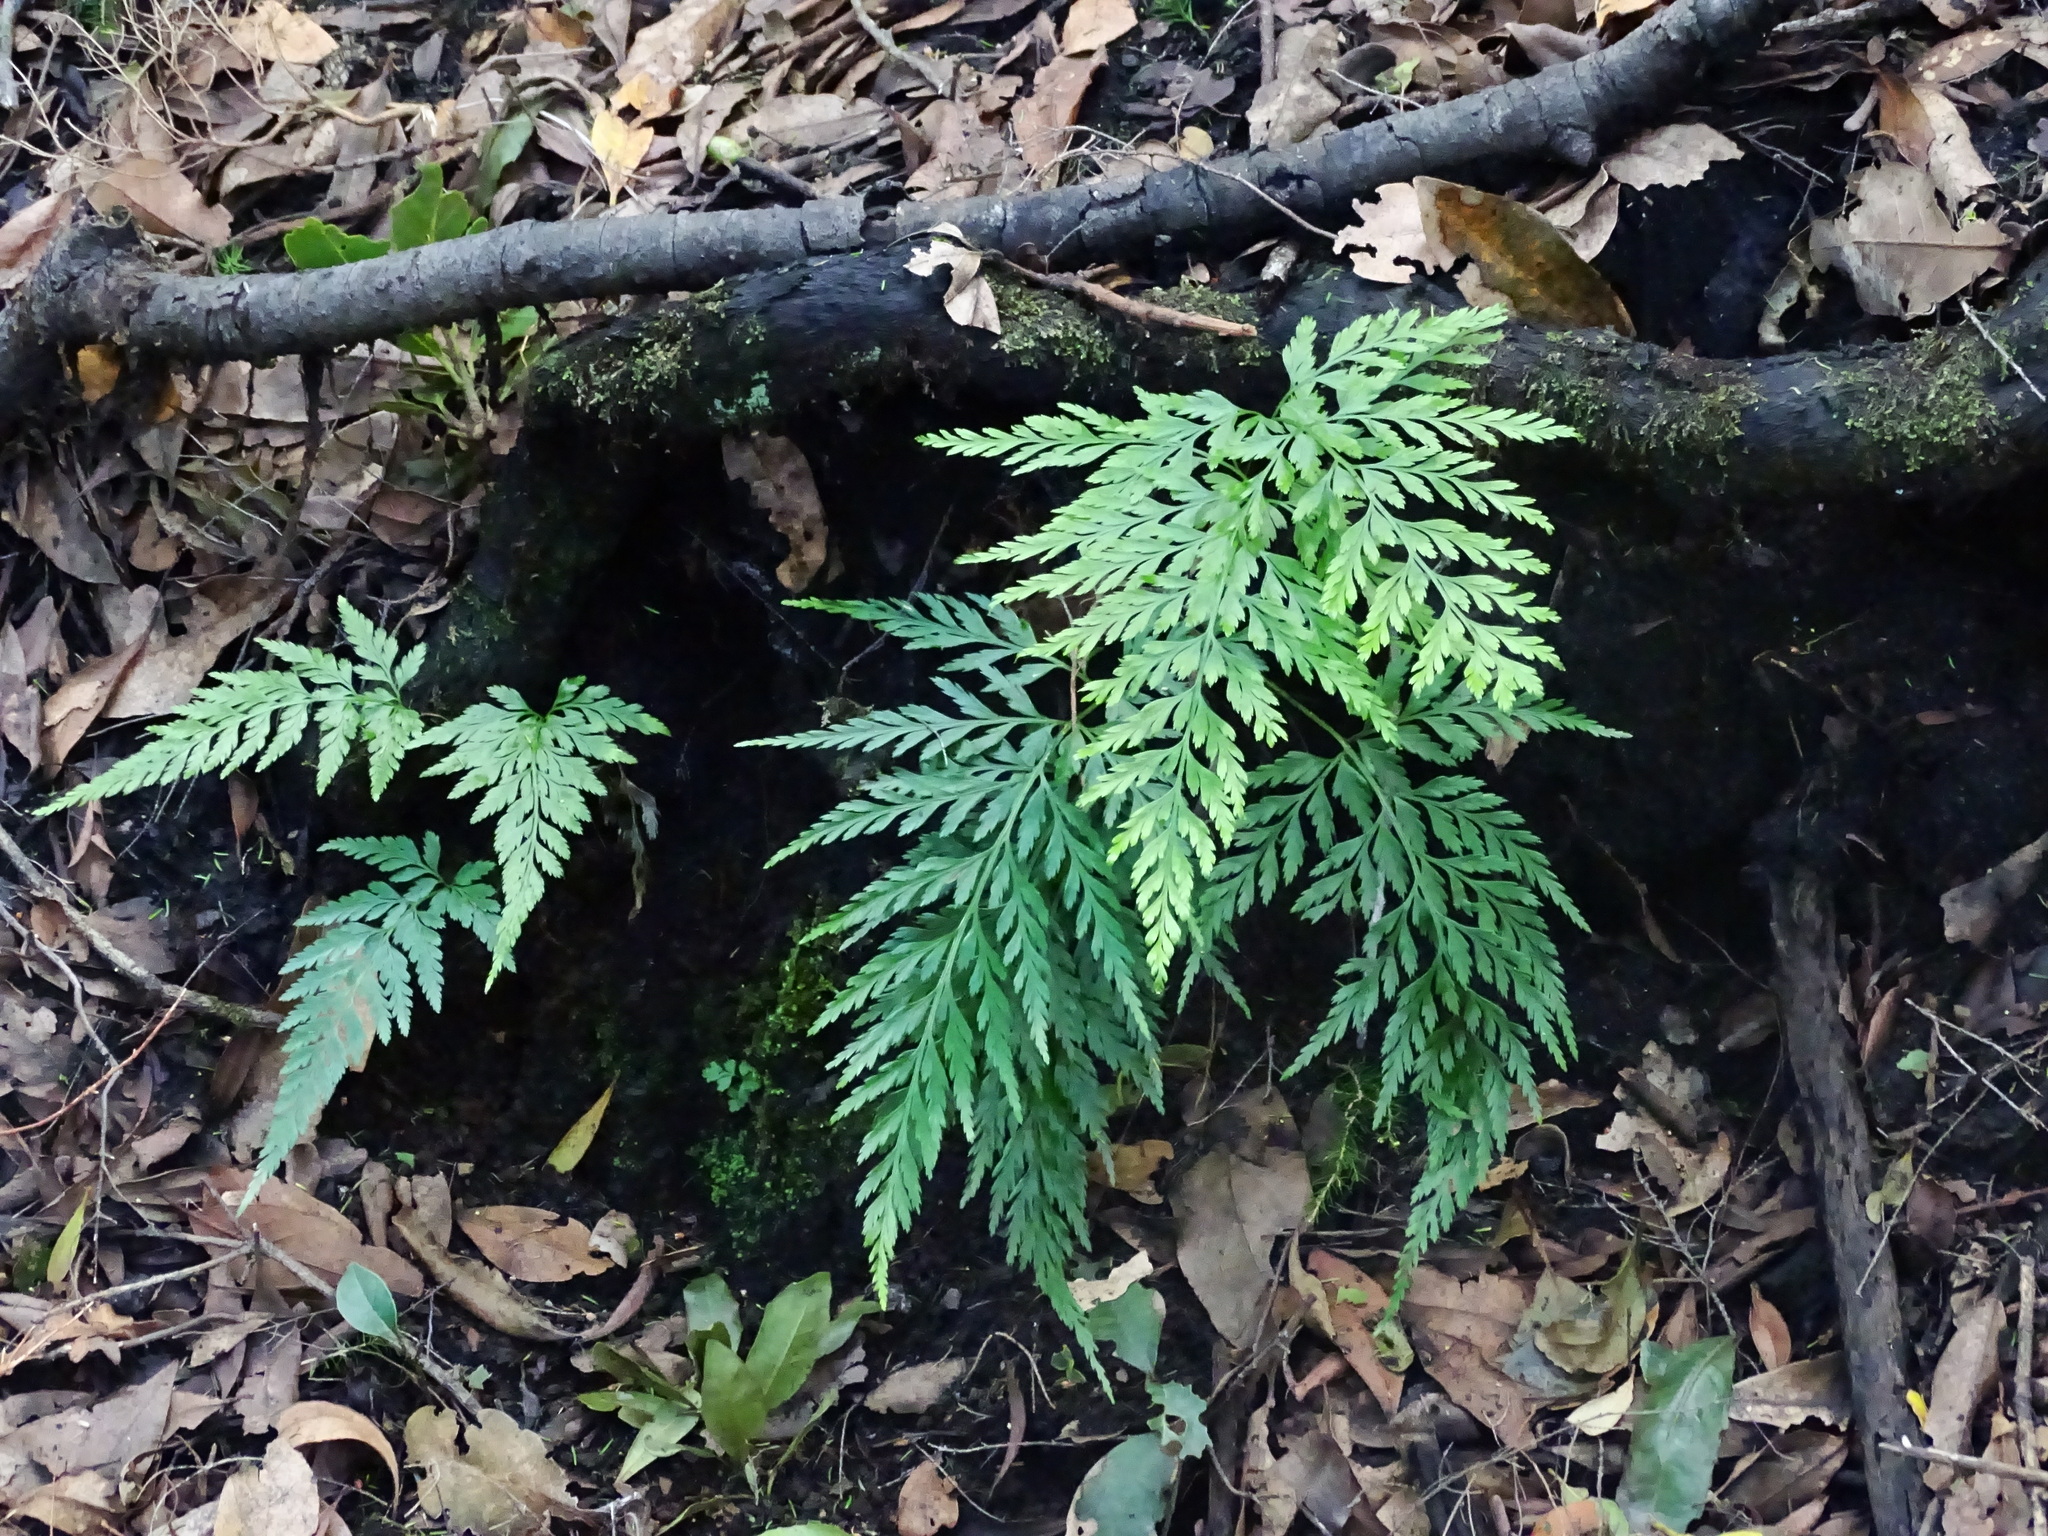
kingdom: Plantae
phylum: Tracheophyta
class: Polypodiopsida
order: Polypodiales
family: Aspleniaceae
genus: Asplenium
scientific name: Asplenium onopteris
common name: Irish spleenwort
